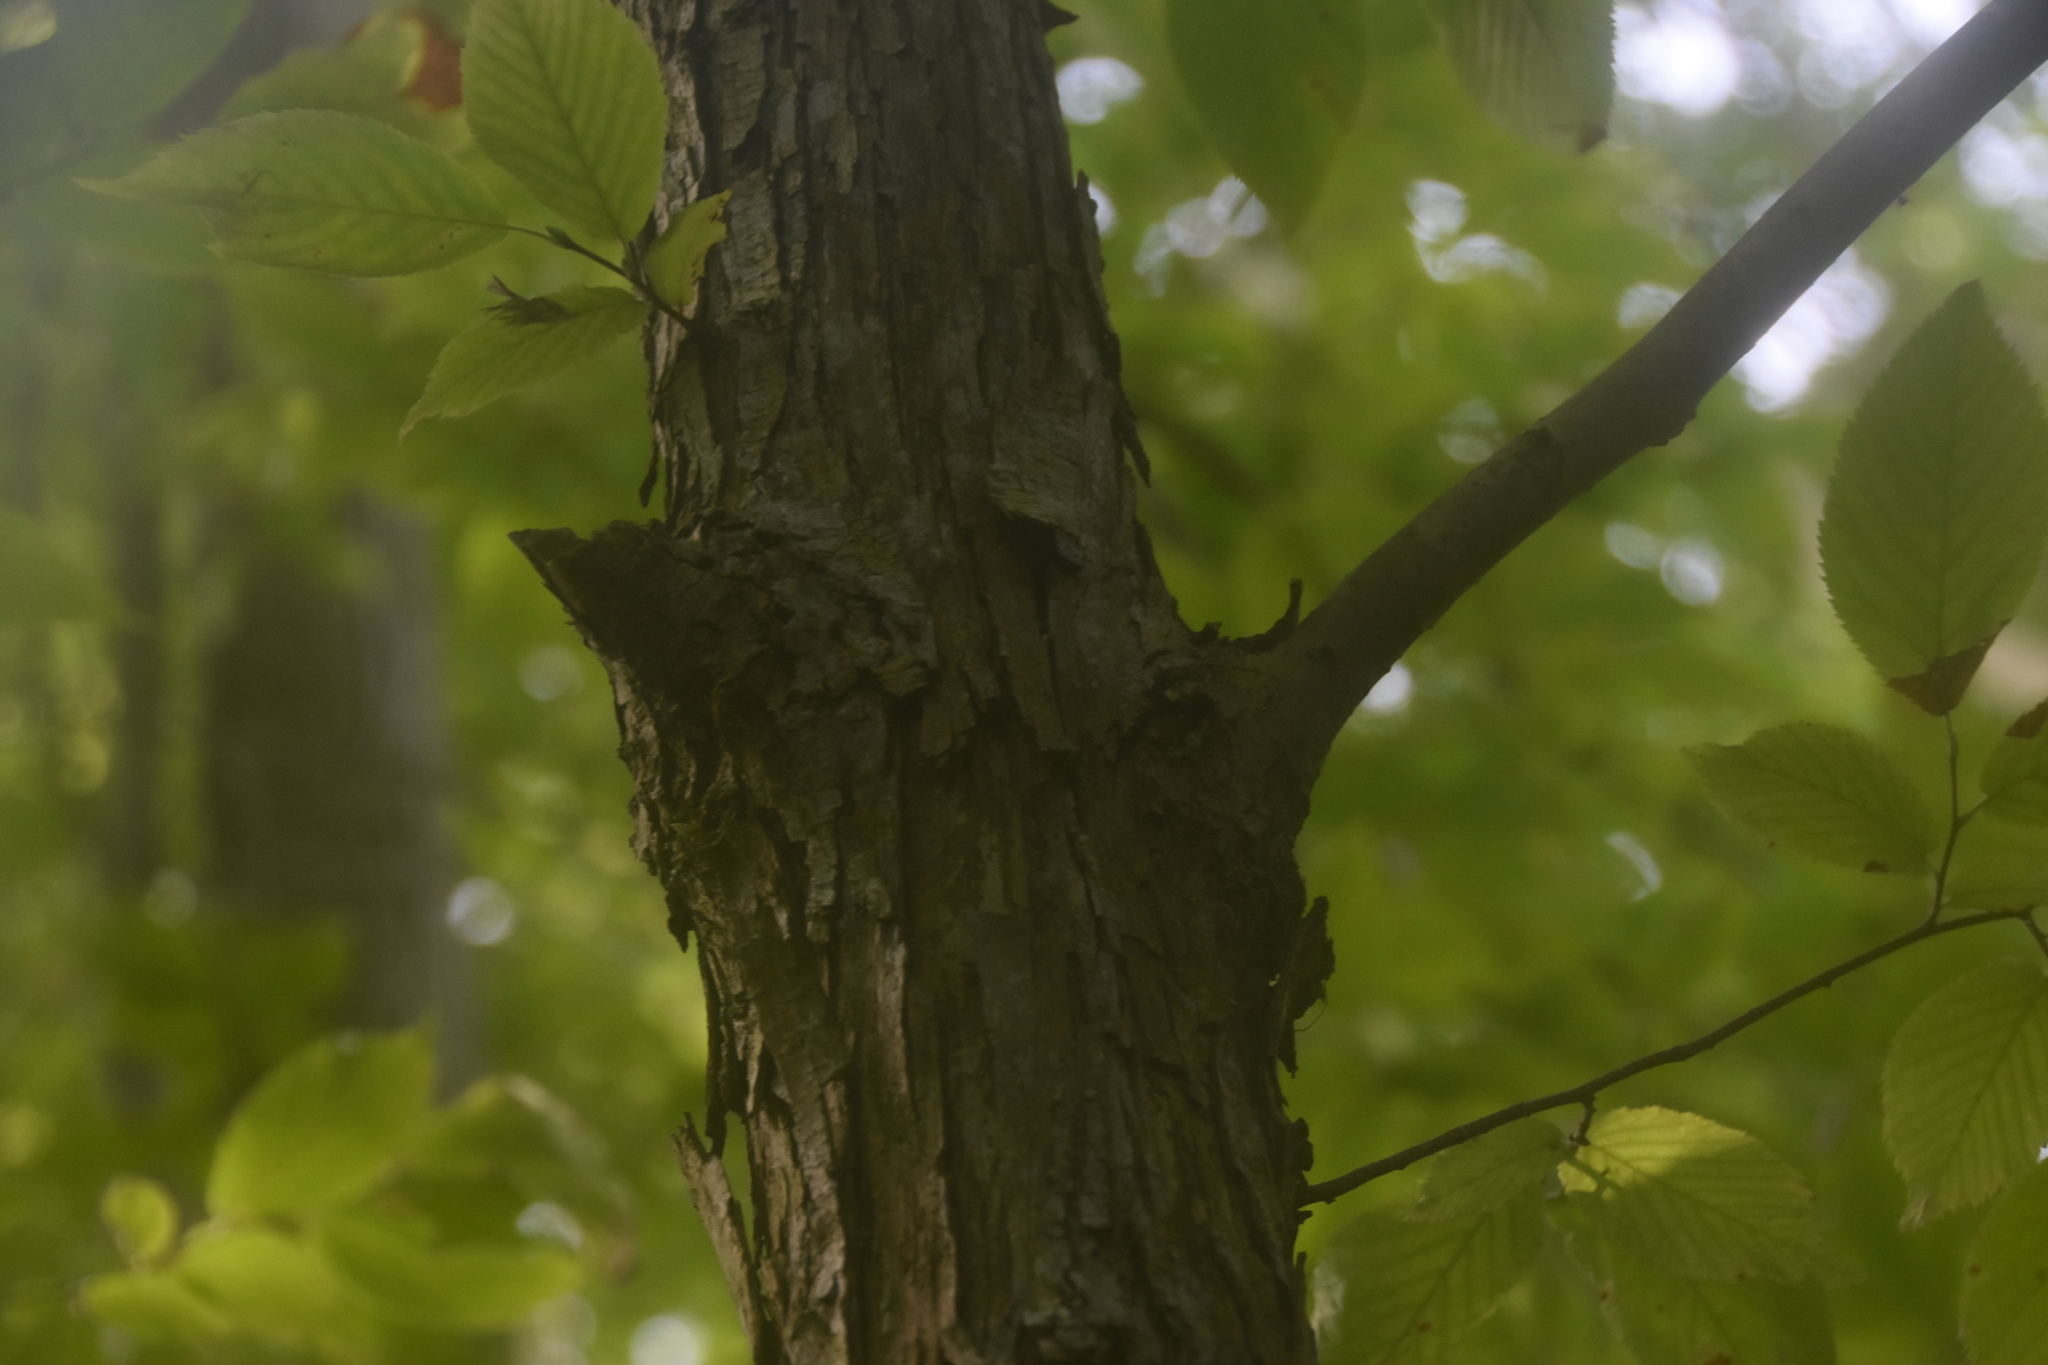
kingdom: Plantae
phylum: Tracheophyta
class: Magnoliopsida
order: Fagales
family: Betulaceae
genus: Ostrya
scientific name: Ostrya virginiana
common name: Ironwood
